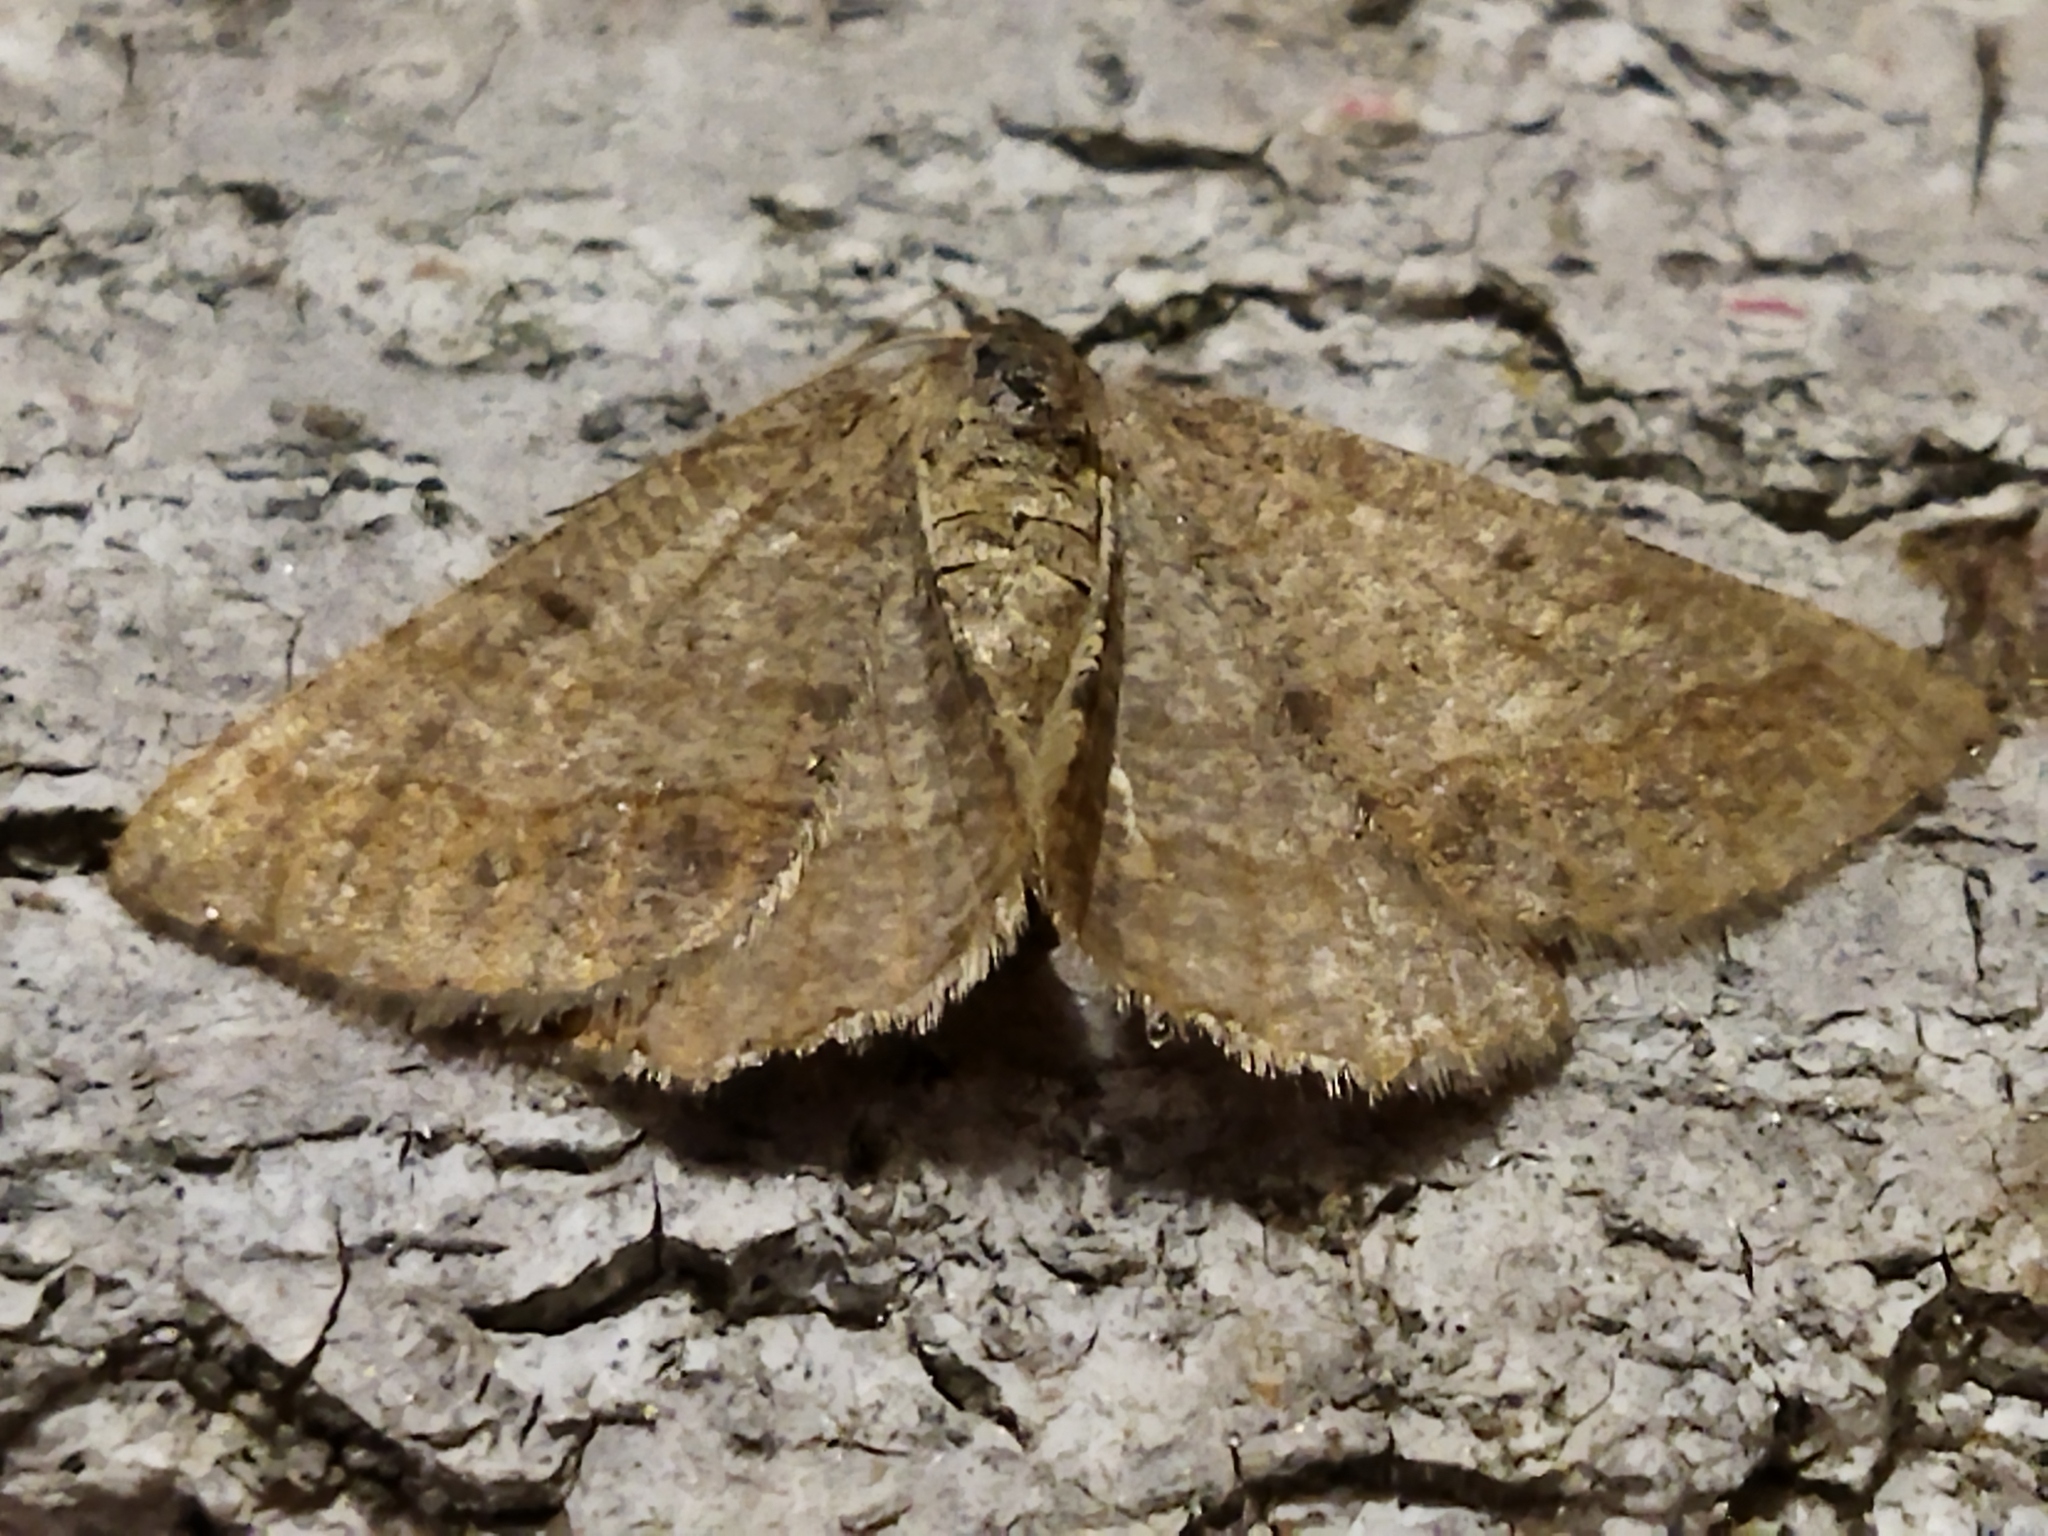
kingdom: Animalia
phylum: Arthropoda
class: Insecta
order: Lepidoptera
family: Geometridae
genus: Tephrina
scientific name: Tephrina murinaria
